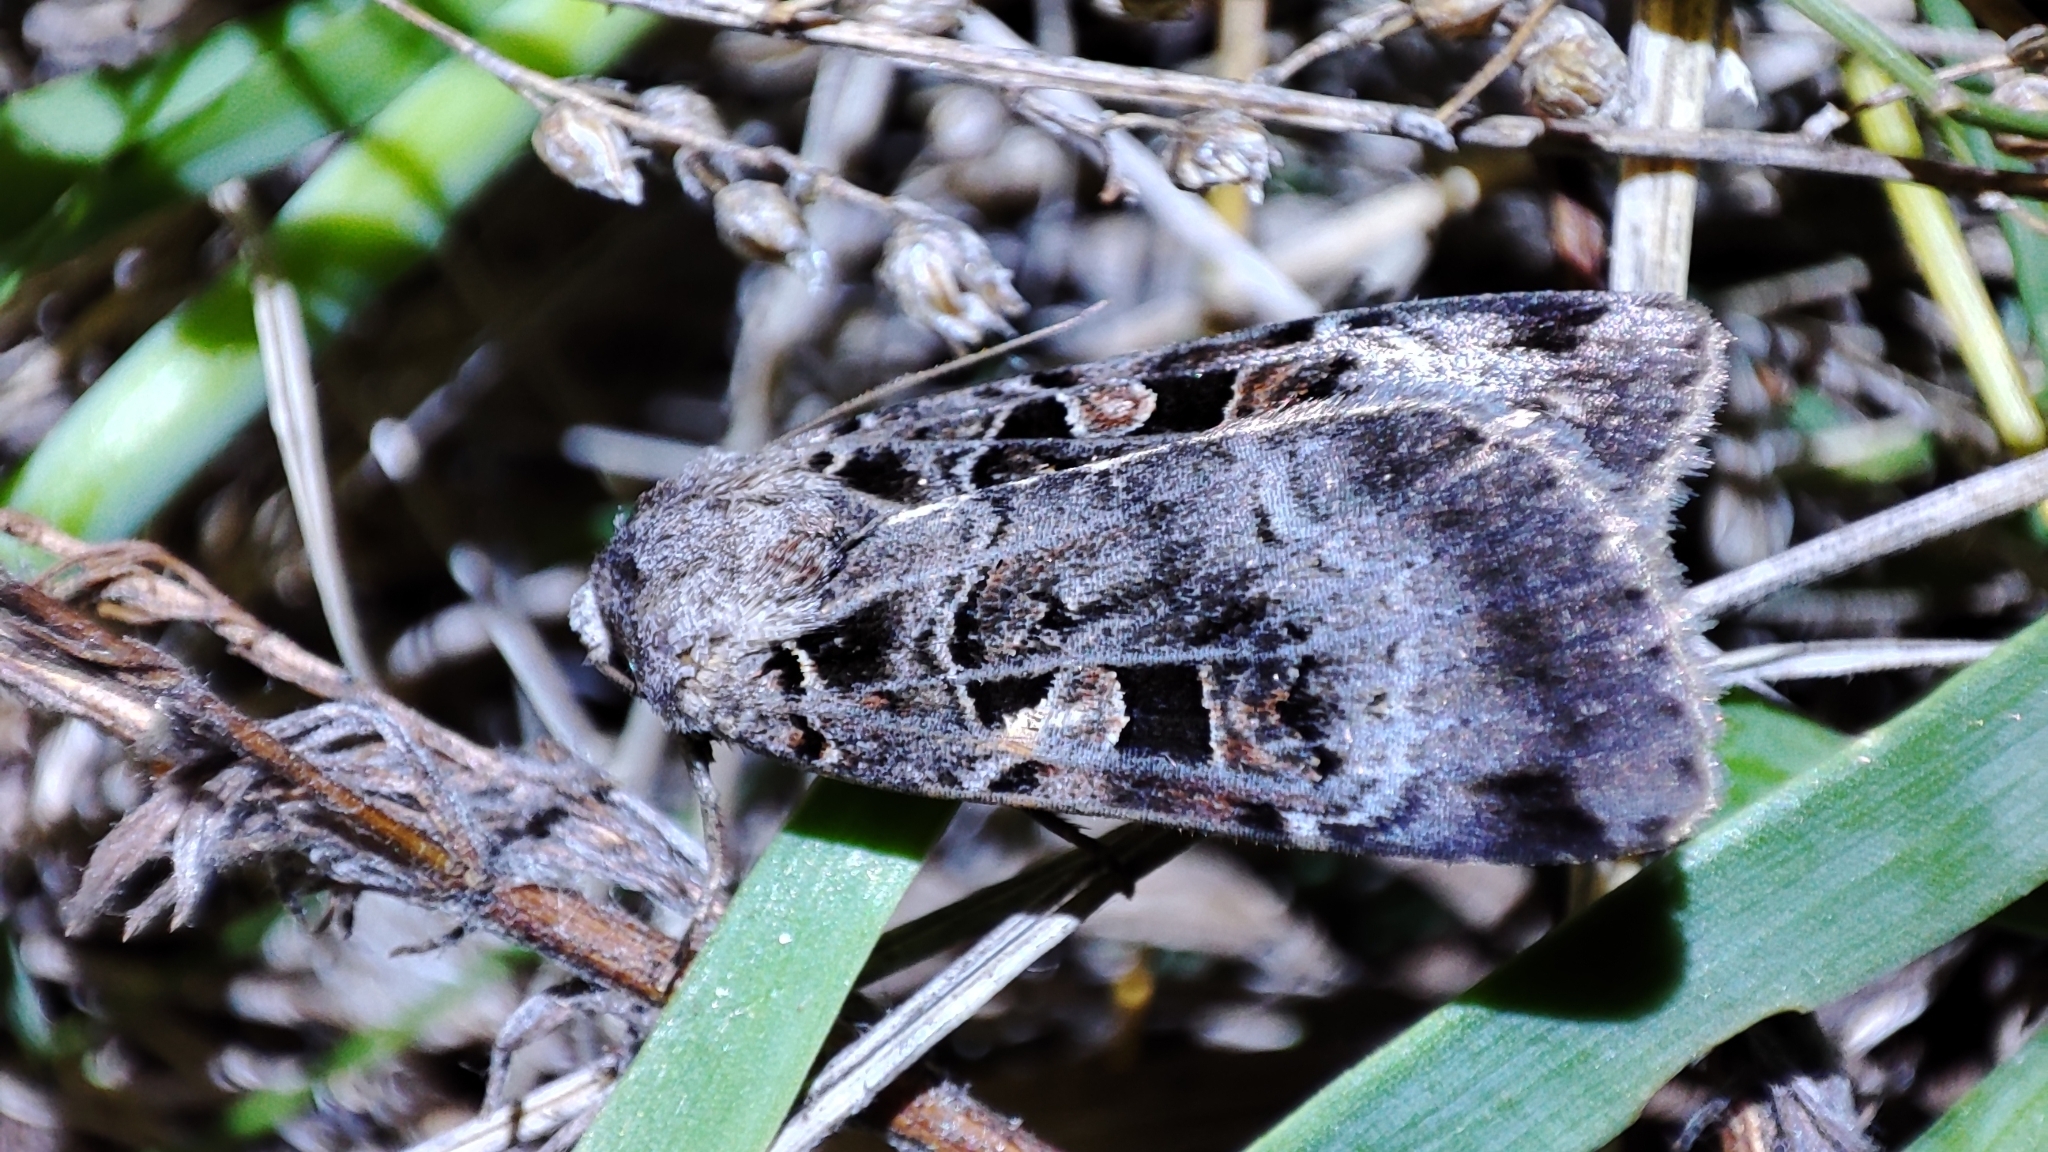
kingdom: Animalia
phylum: Arthropoda
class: Insecta
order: Lepidoptera
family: Noctuidae
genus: Xestia
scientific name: Xestia kollari
